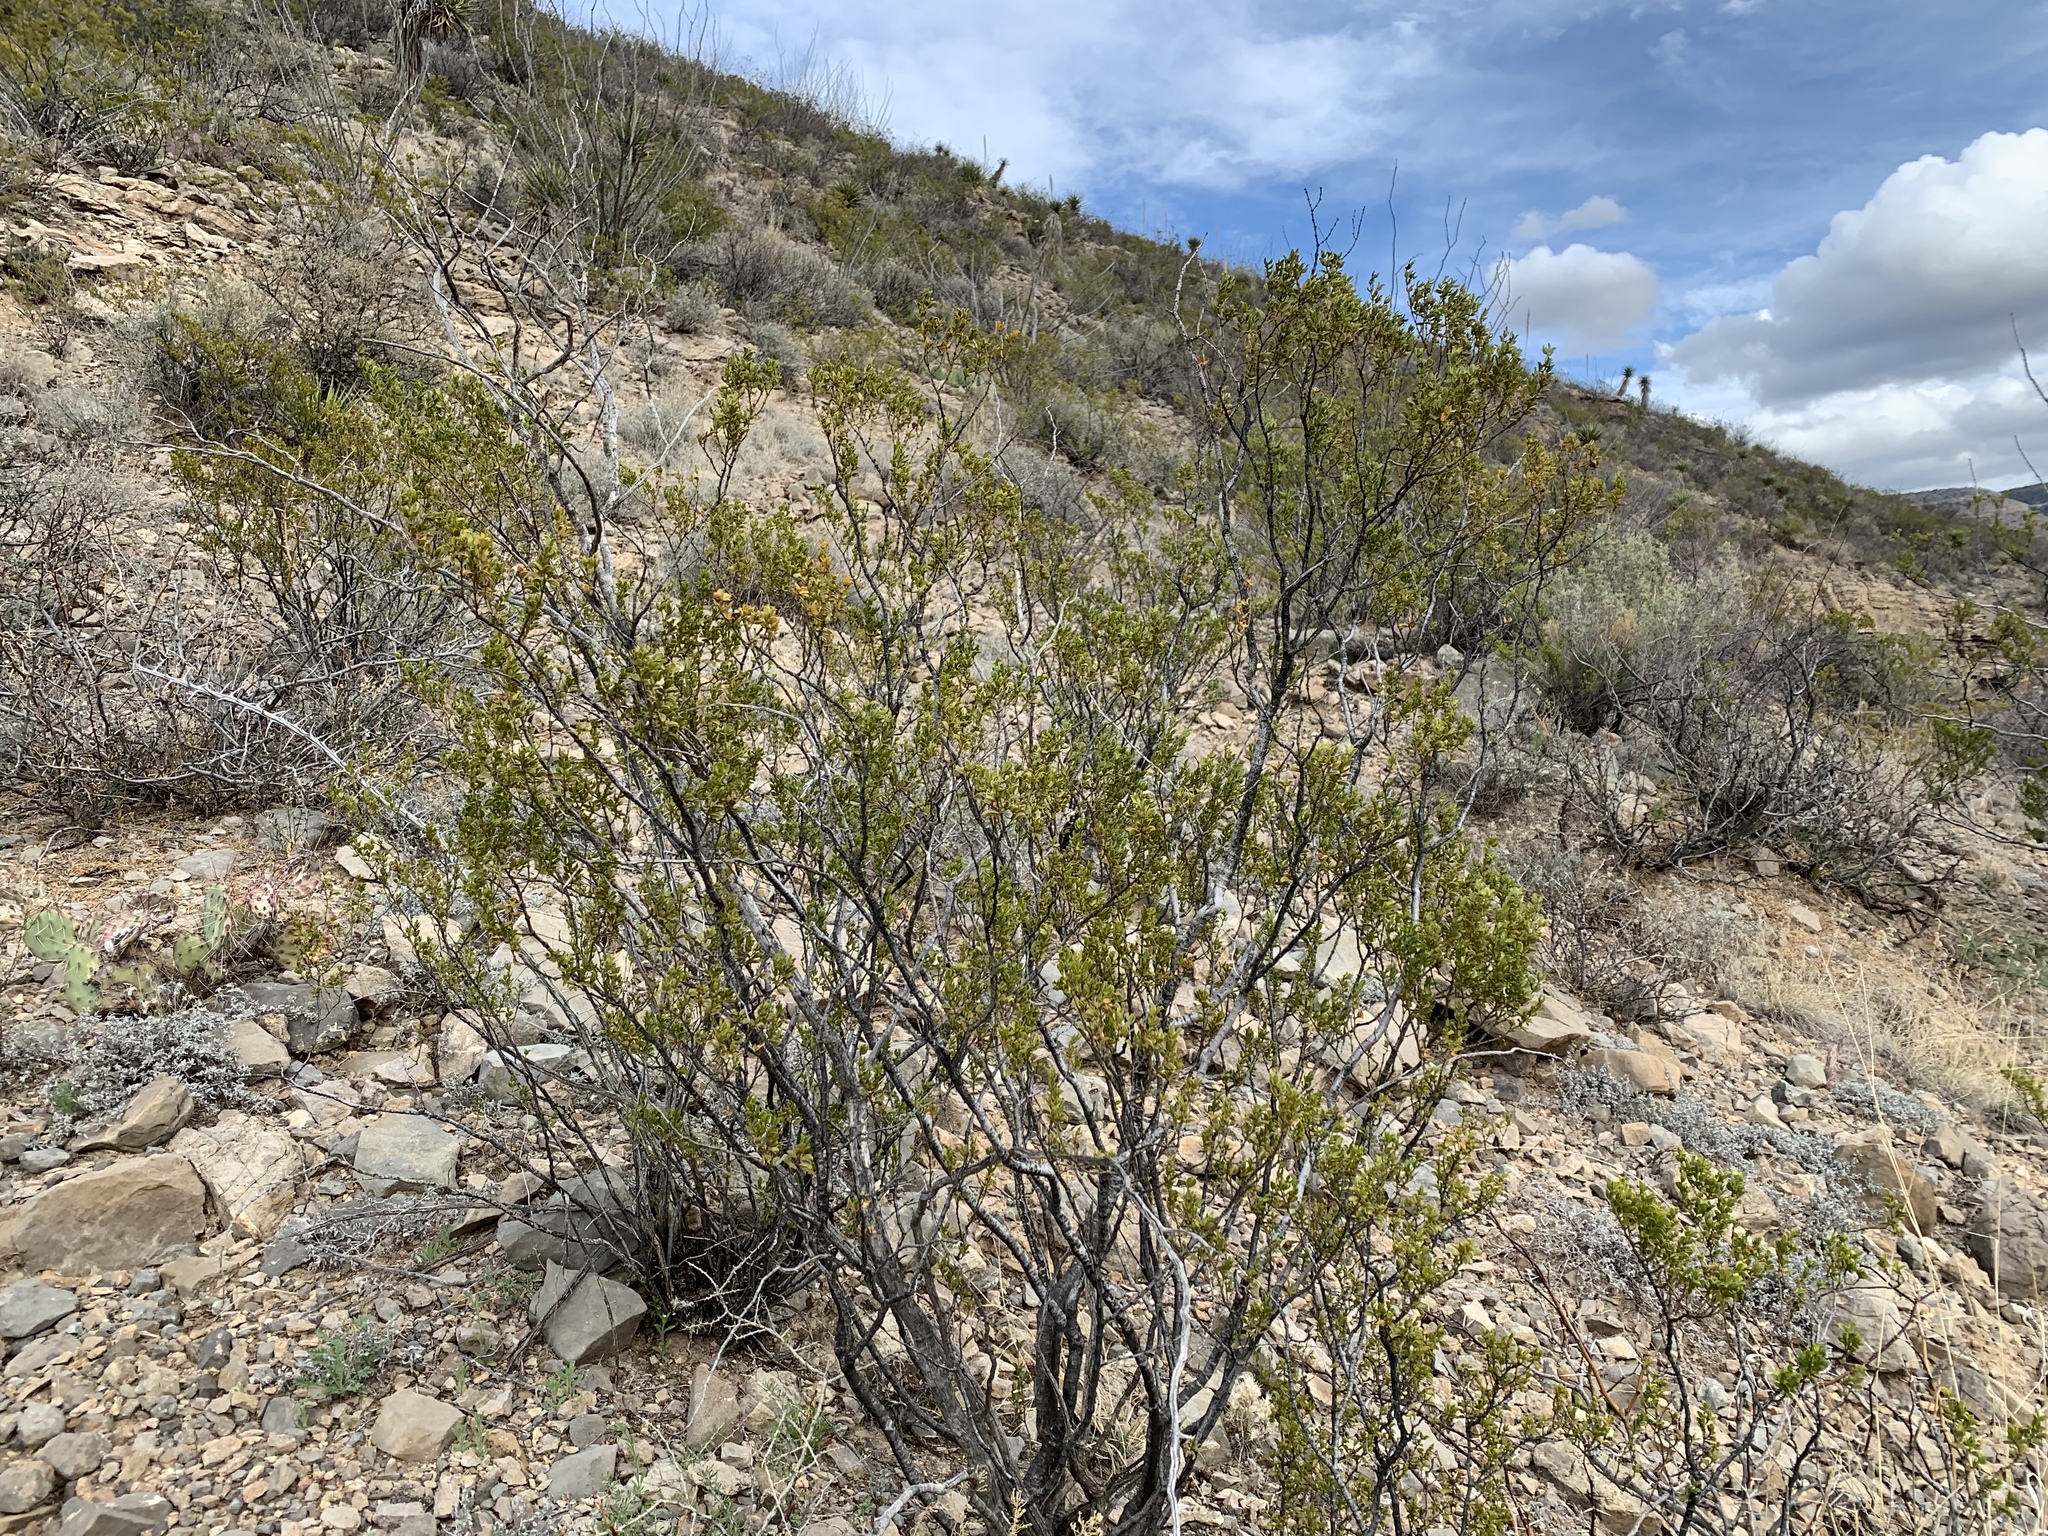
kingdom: Plantae
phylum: Tracheophyta
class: Magnoliopsida
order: Zygophyllales
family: Zygophyllaceae
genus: Larrea
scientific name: Larrea tridentata
